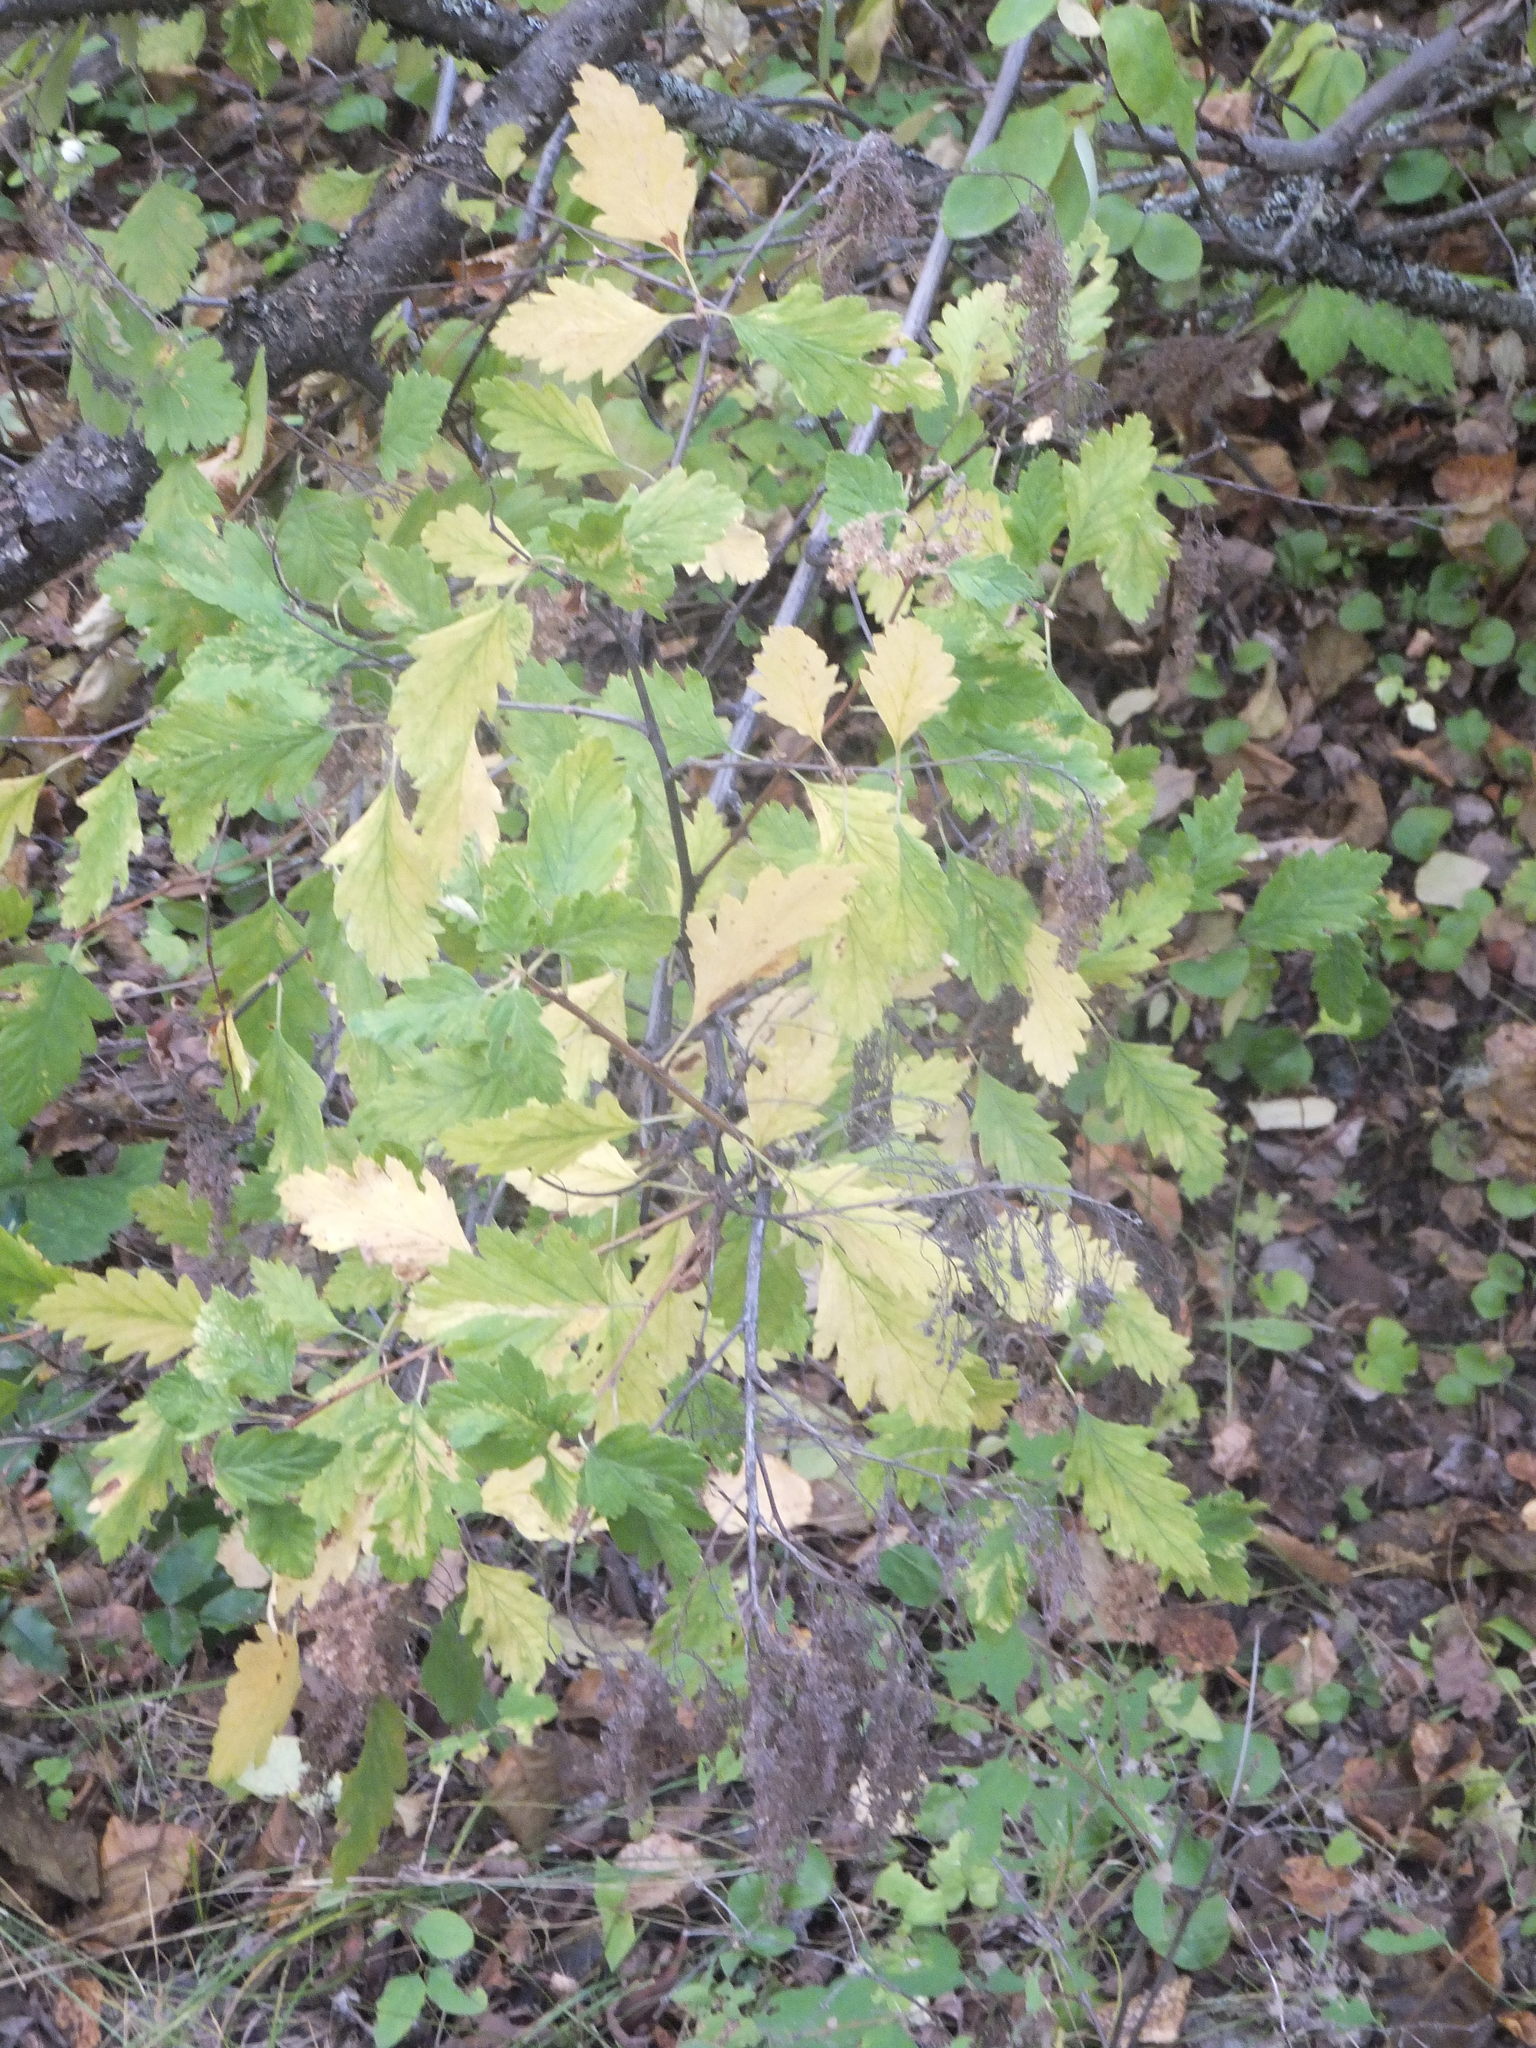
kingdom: Plantae
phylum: Tracheophyta
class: Magnoliopsida
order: Rosales
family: Rosaceae
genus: Holodiscus
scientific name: Holodiscus discolor
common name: Oceanspray
